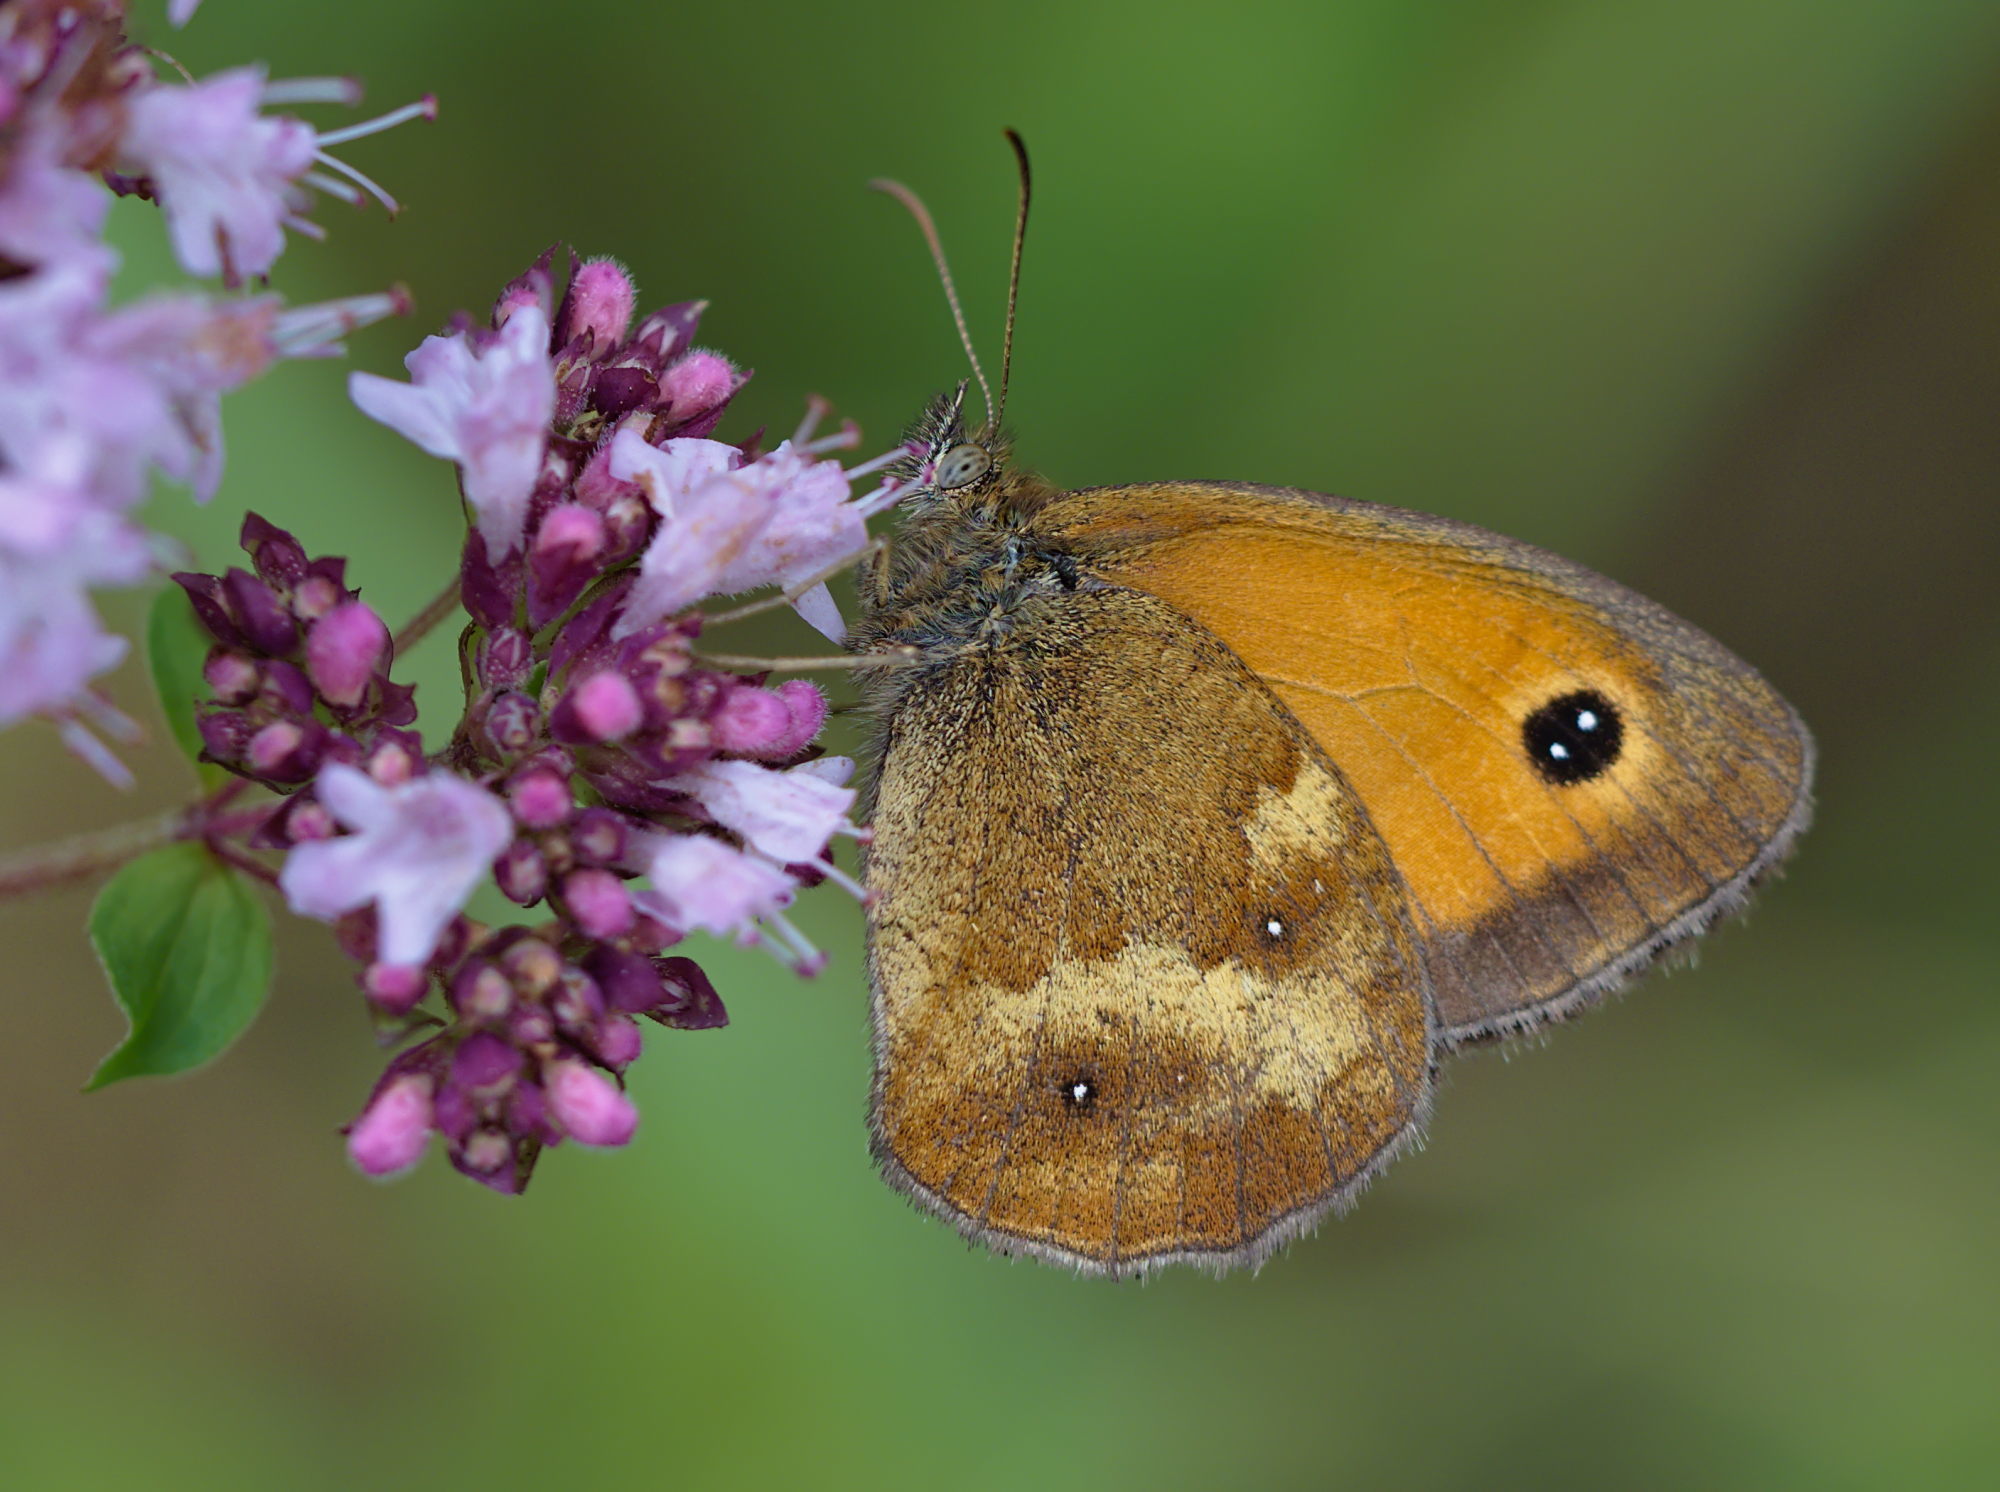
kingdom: Animalia
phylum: Arthropoda
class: Insecta
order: Lepidoptera
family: Nymphalidae
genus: Pyronia
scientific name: Pyronia tithonus
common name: Gatekeeper
